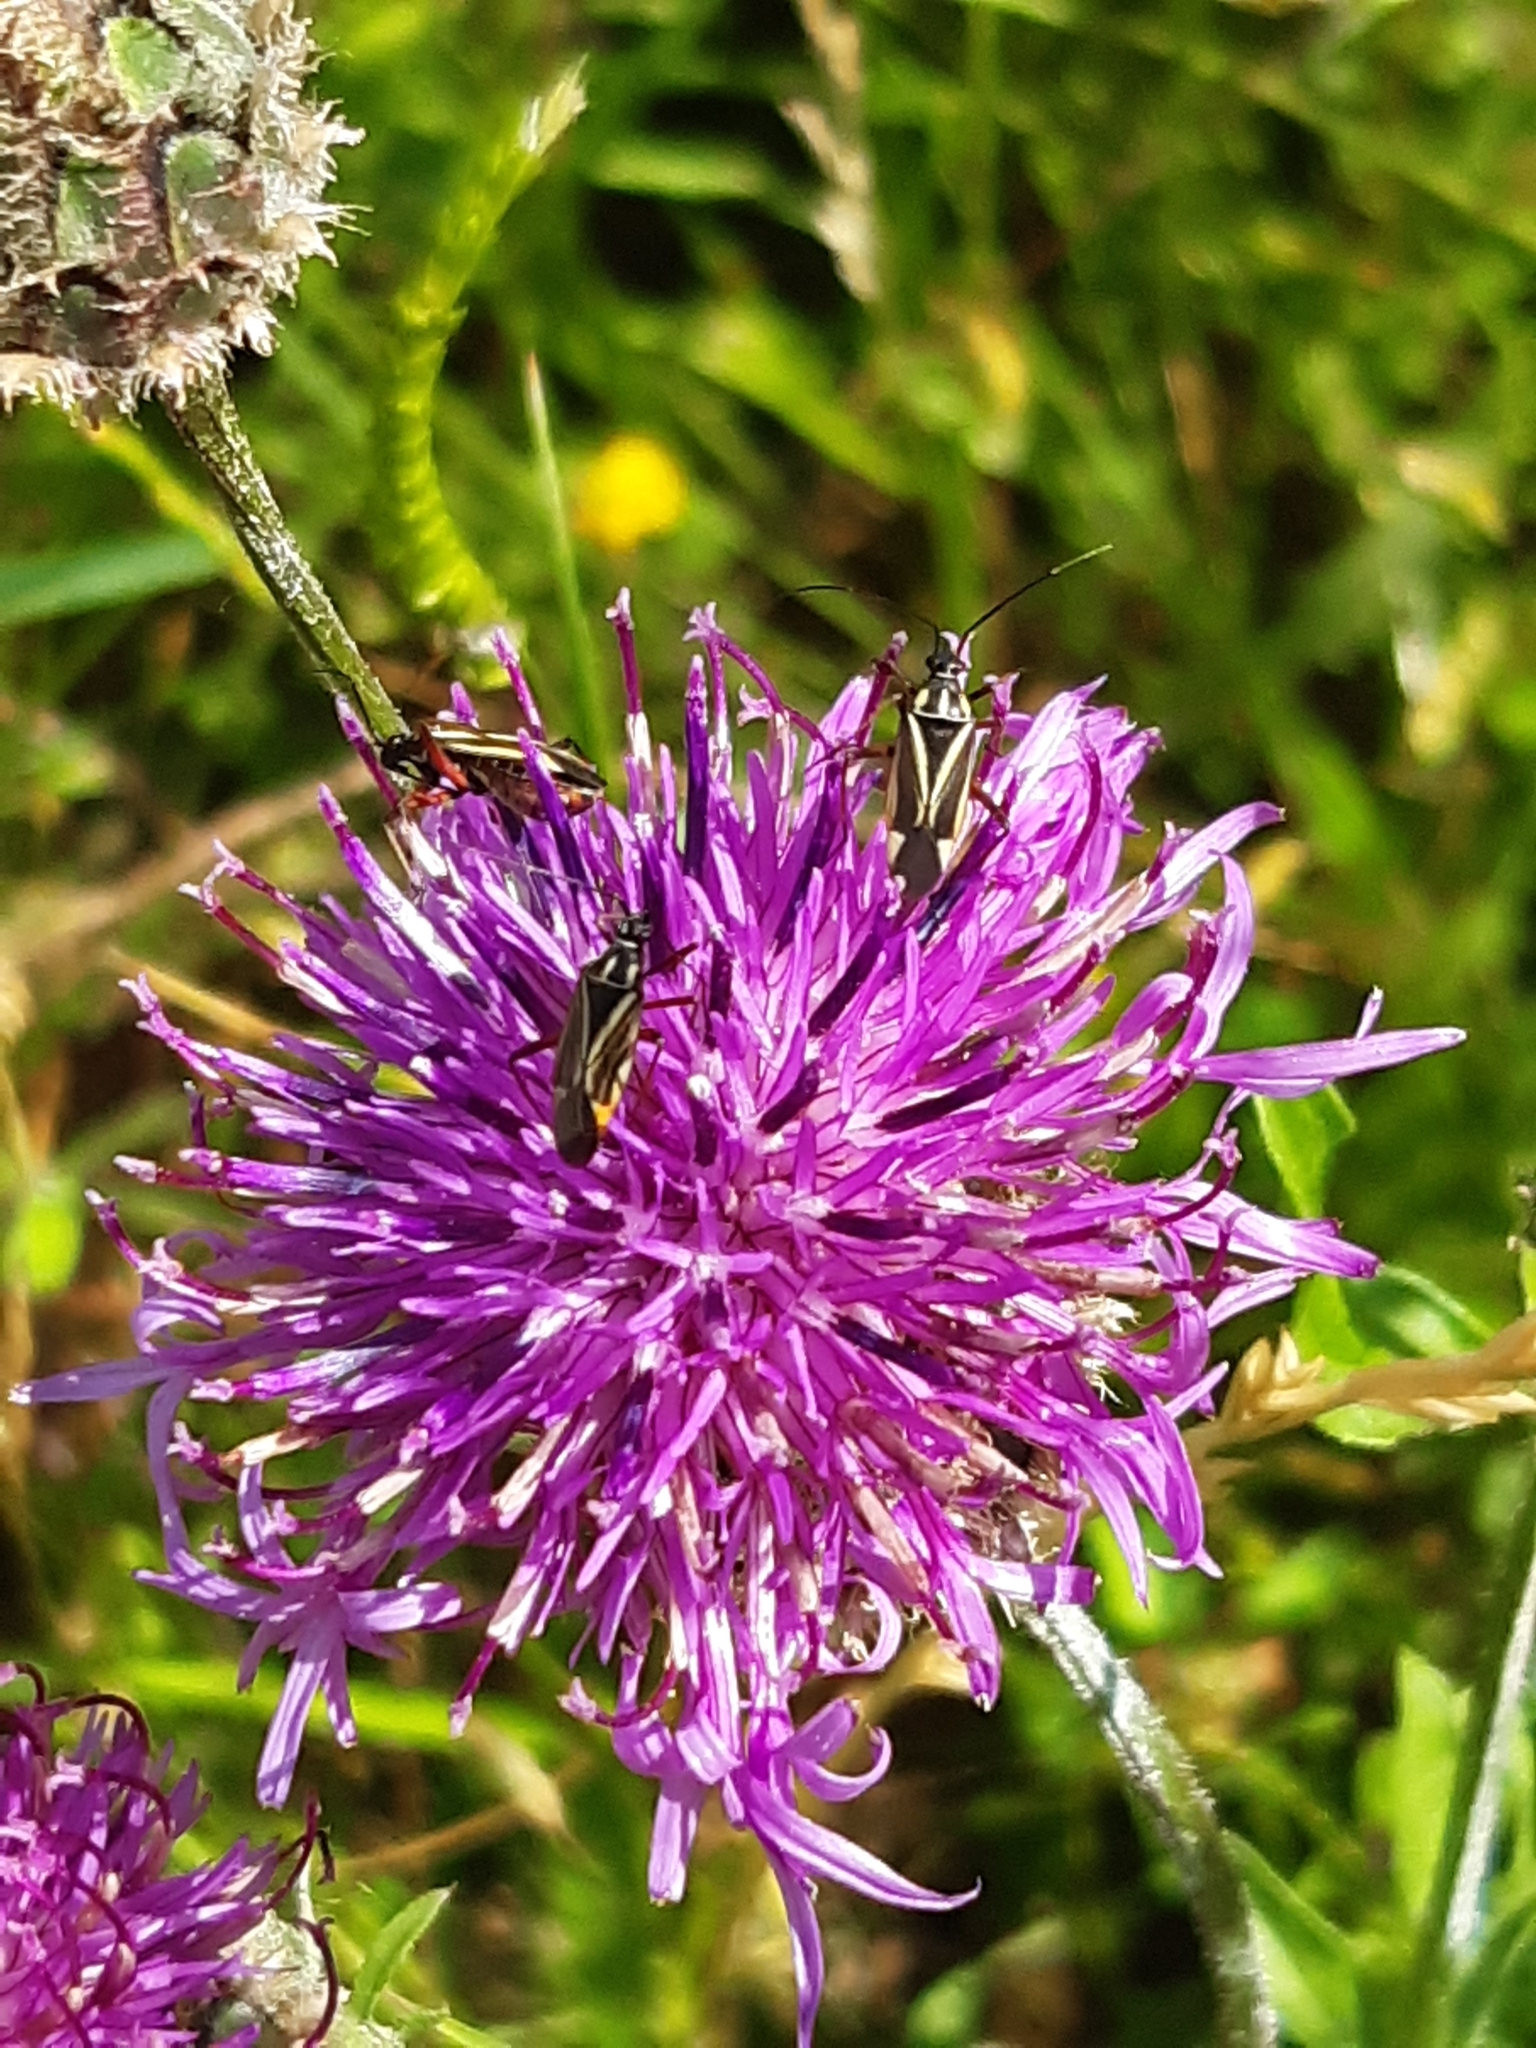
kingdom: Plantae
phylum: Tracheophyta
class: Magnoliopsida
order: Asterales
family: Asteraceae
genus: Centaurea
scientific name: Centaurea scabiosa
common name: Greater knapweed
